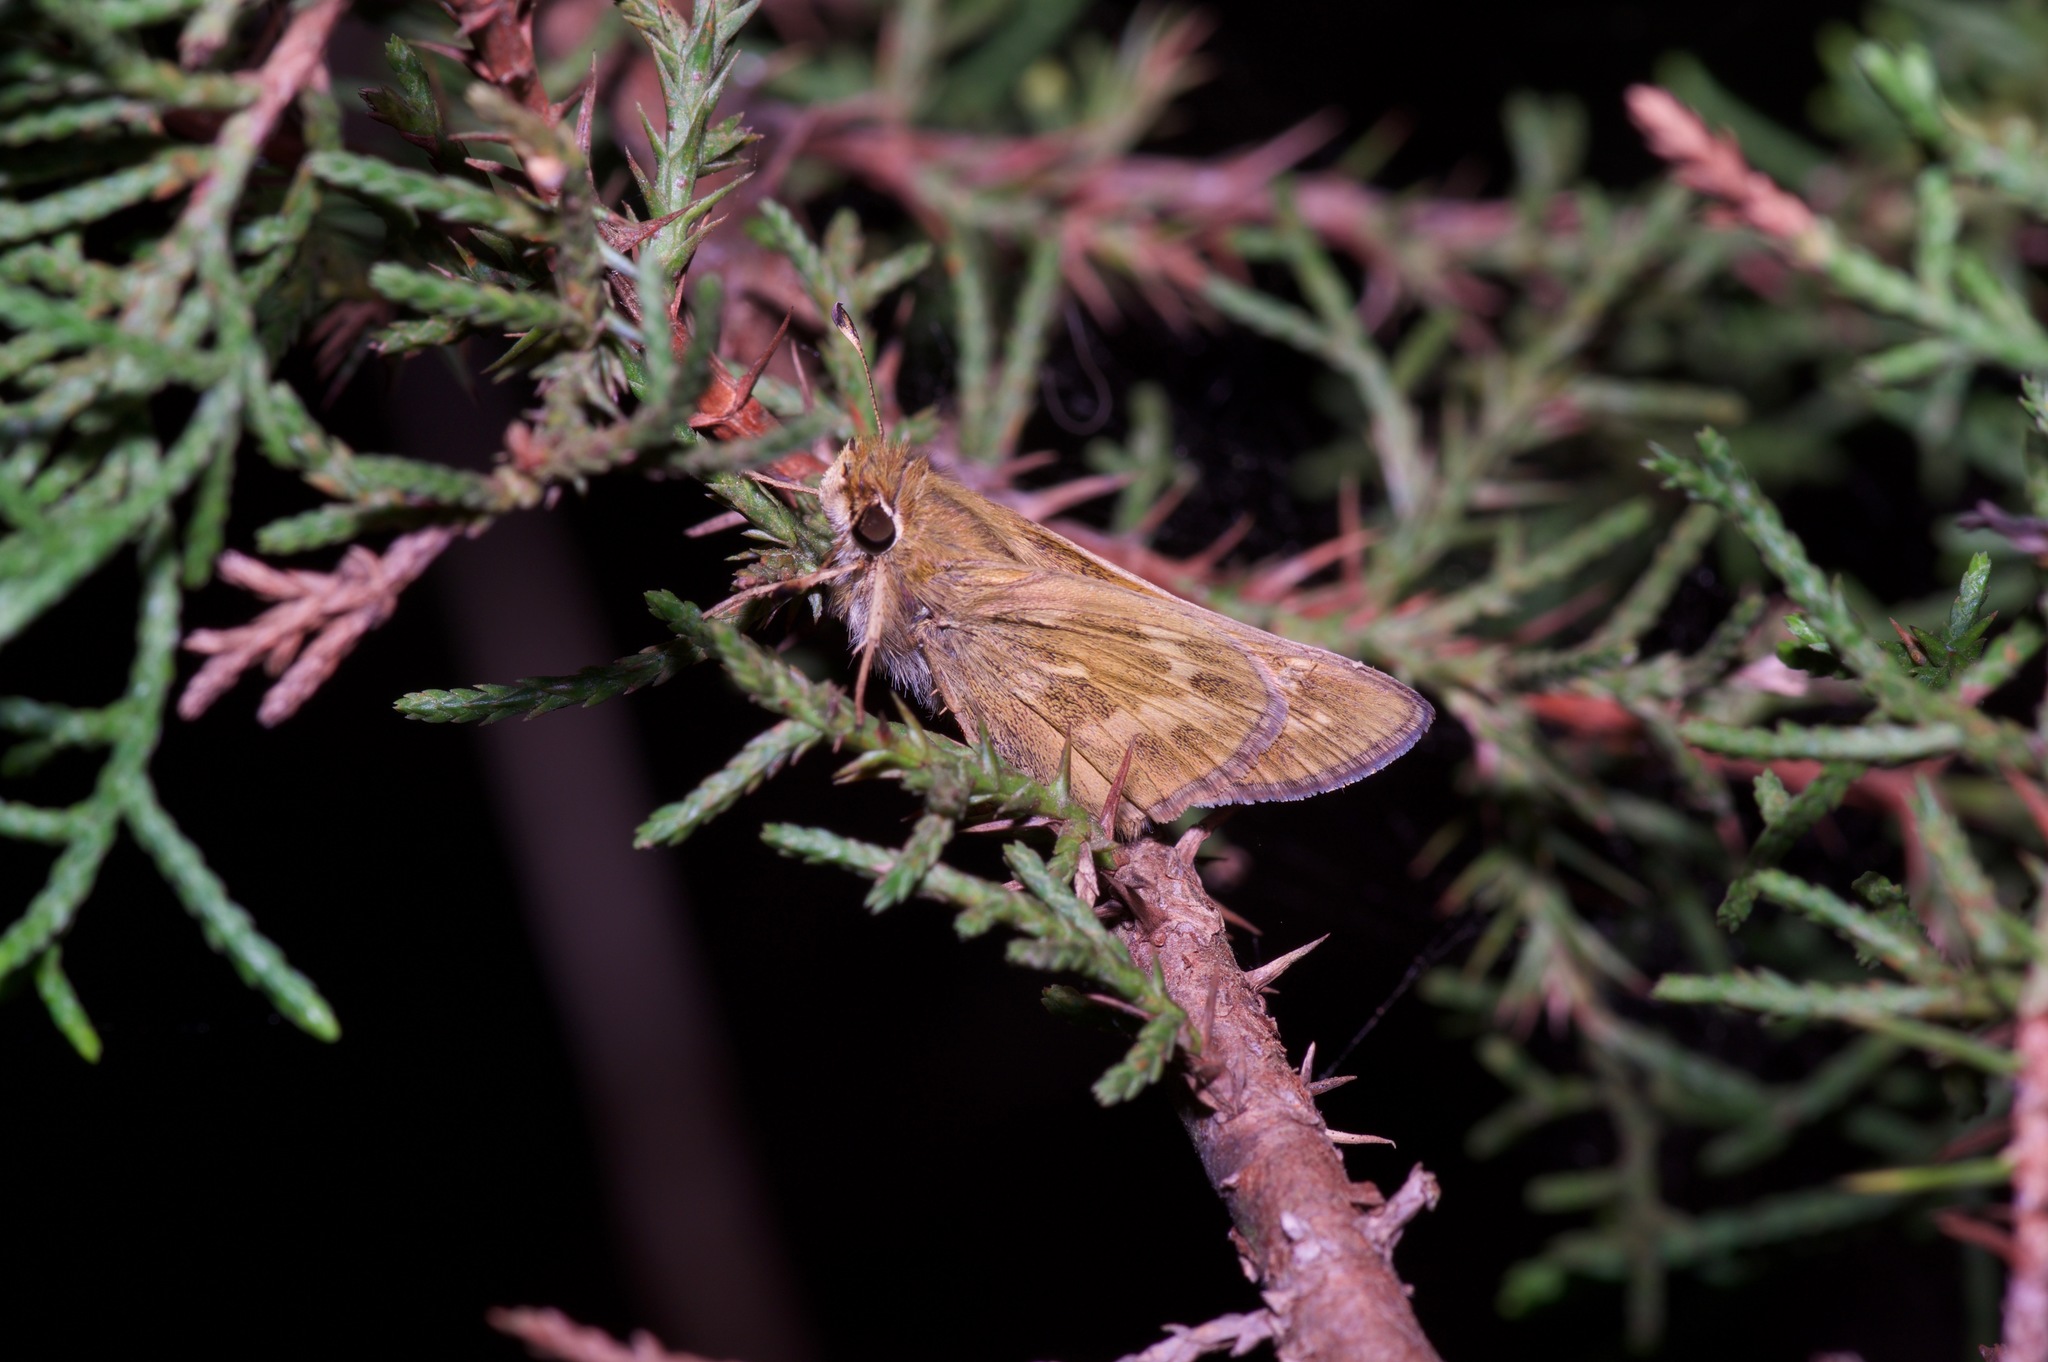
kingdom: Animalia
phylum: Arthropoda
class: Insecta
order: Lepidoptera
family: Hesperiidae
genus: Atalopedes
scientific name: Atalopedes
